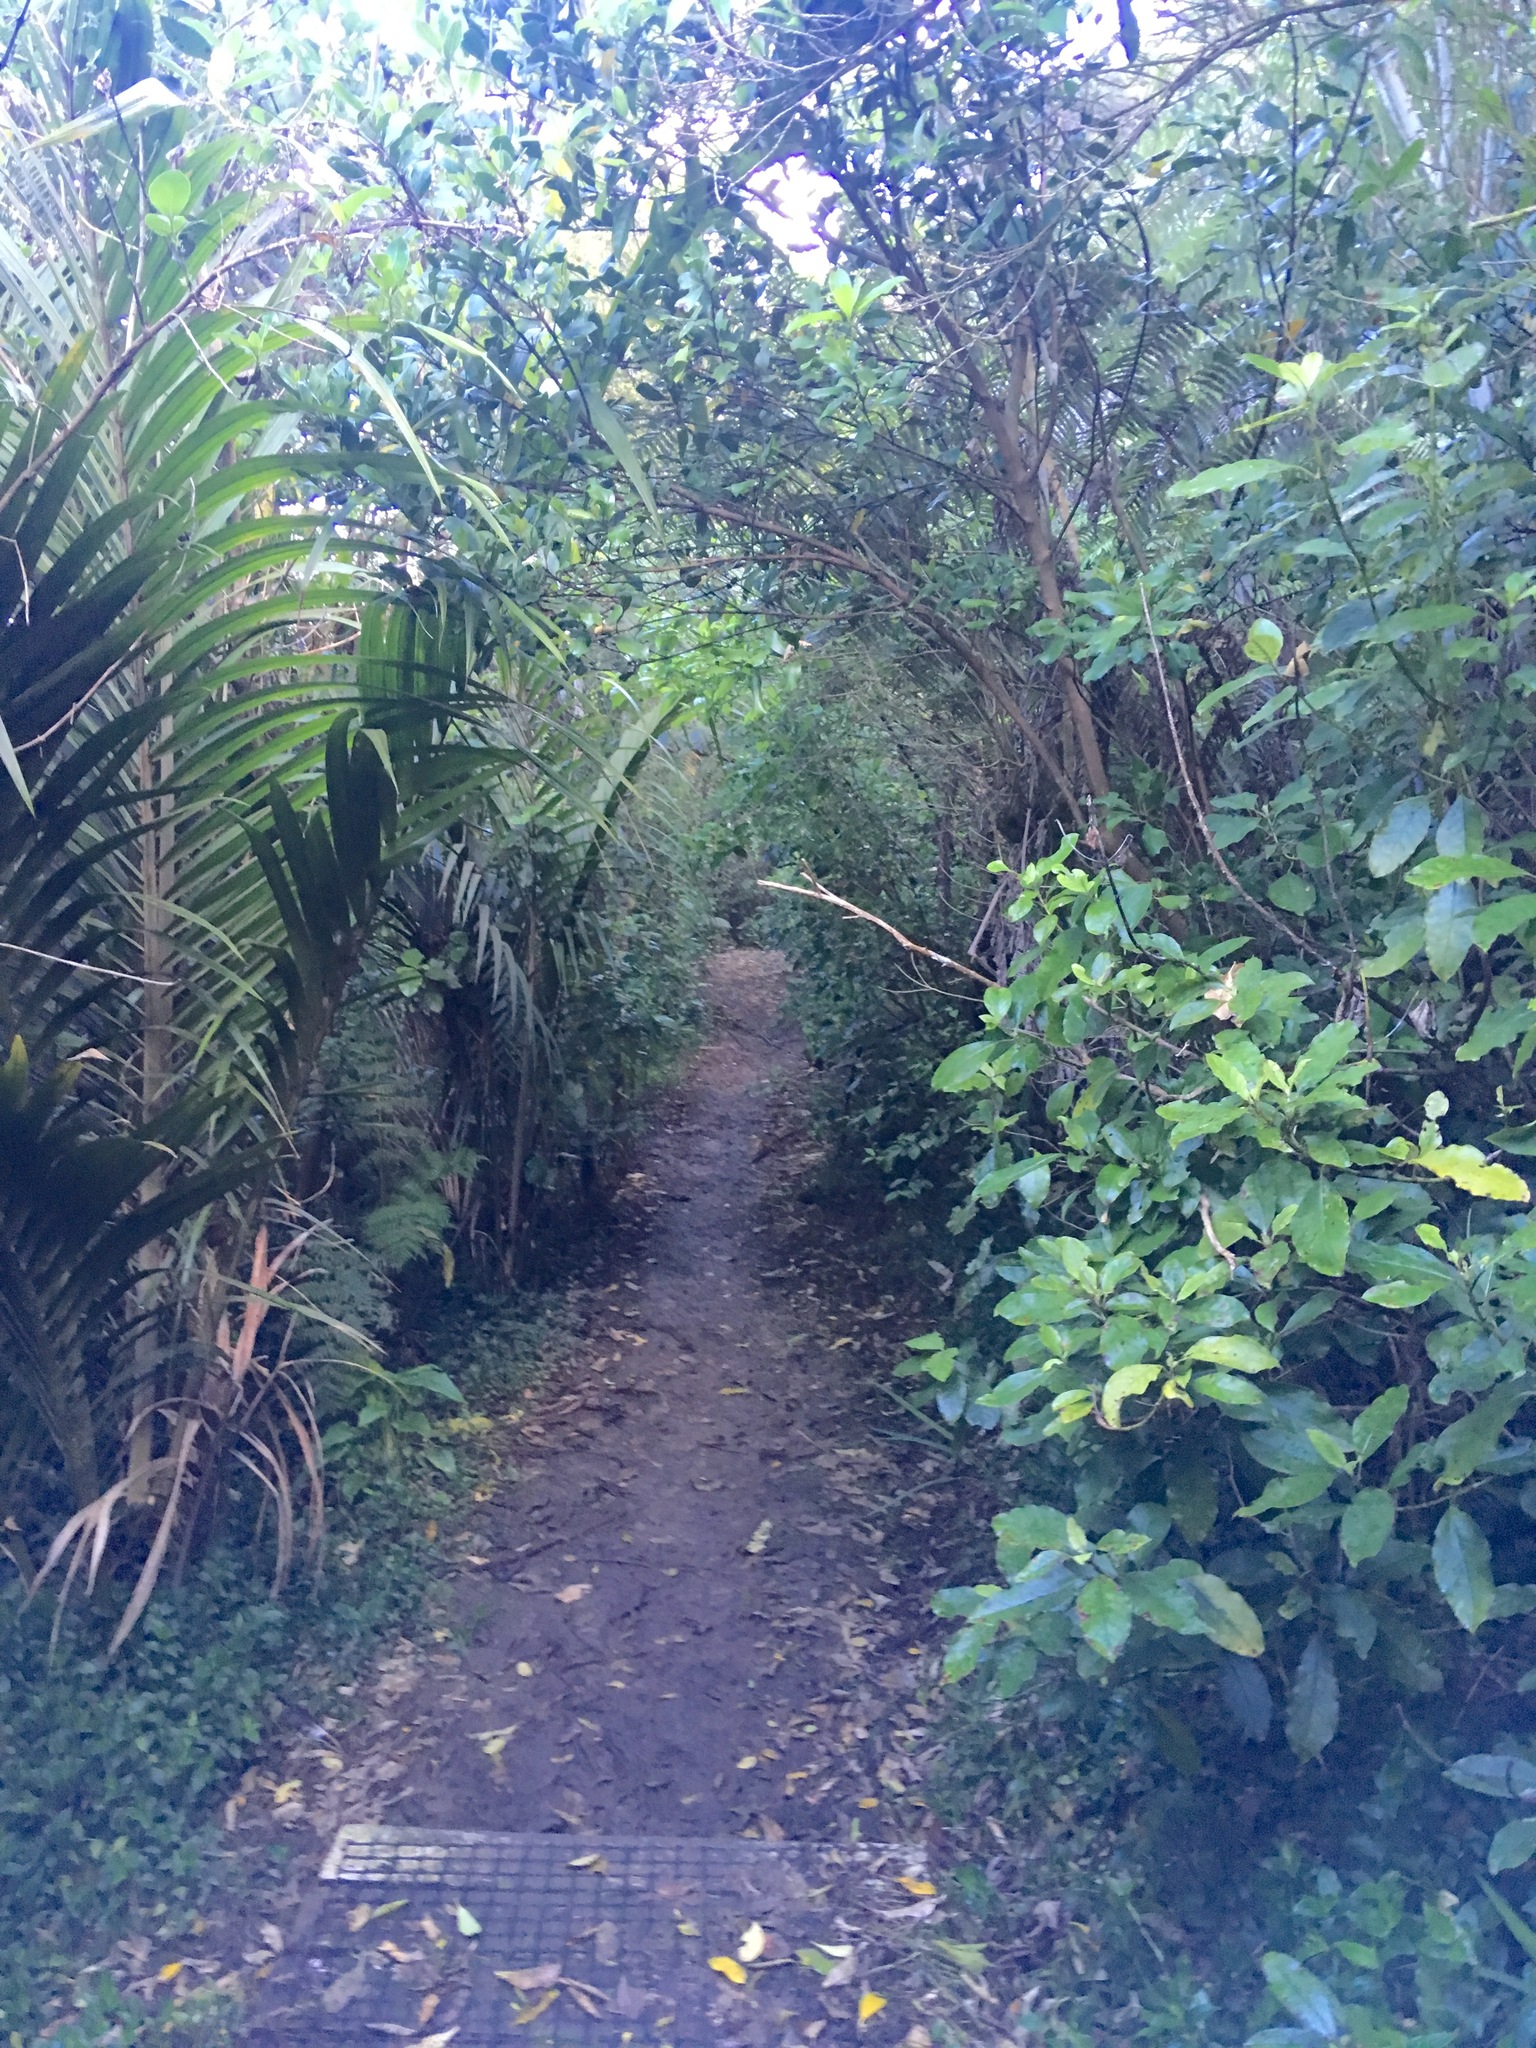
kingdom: Plantae
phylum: Tracheophyta
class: Liliopsida
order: Arecales
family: Arecaceae
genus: Rhopalostylis
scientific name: Rhopalostylis sapida
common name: Feather-duster palm
